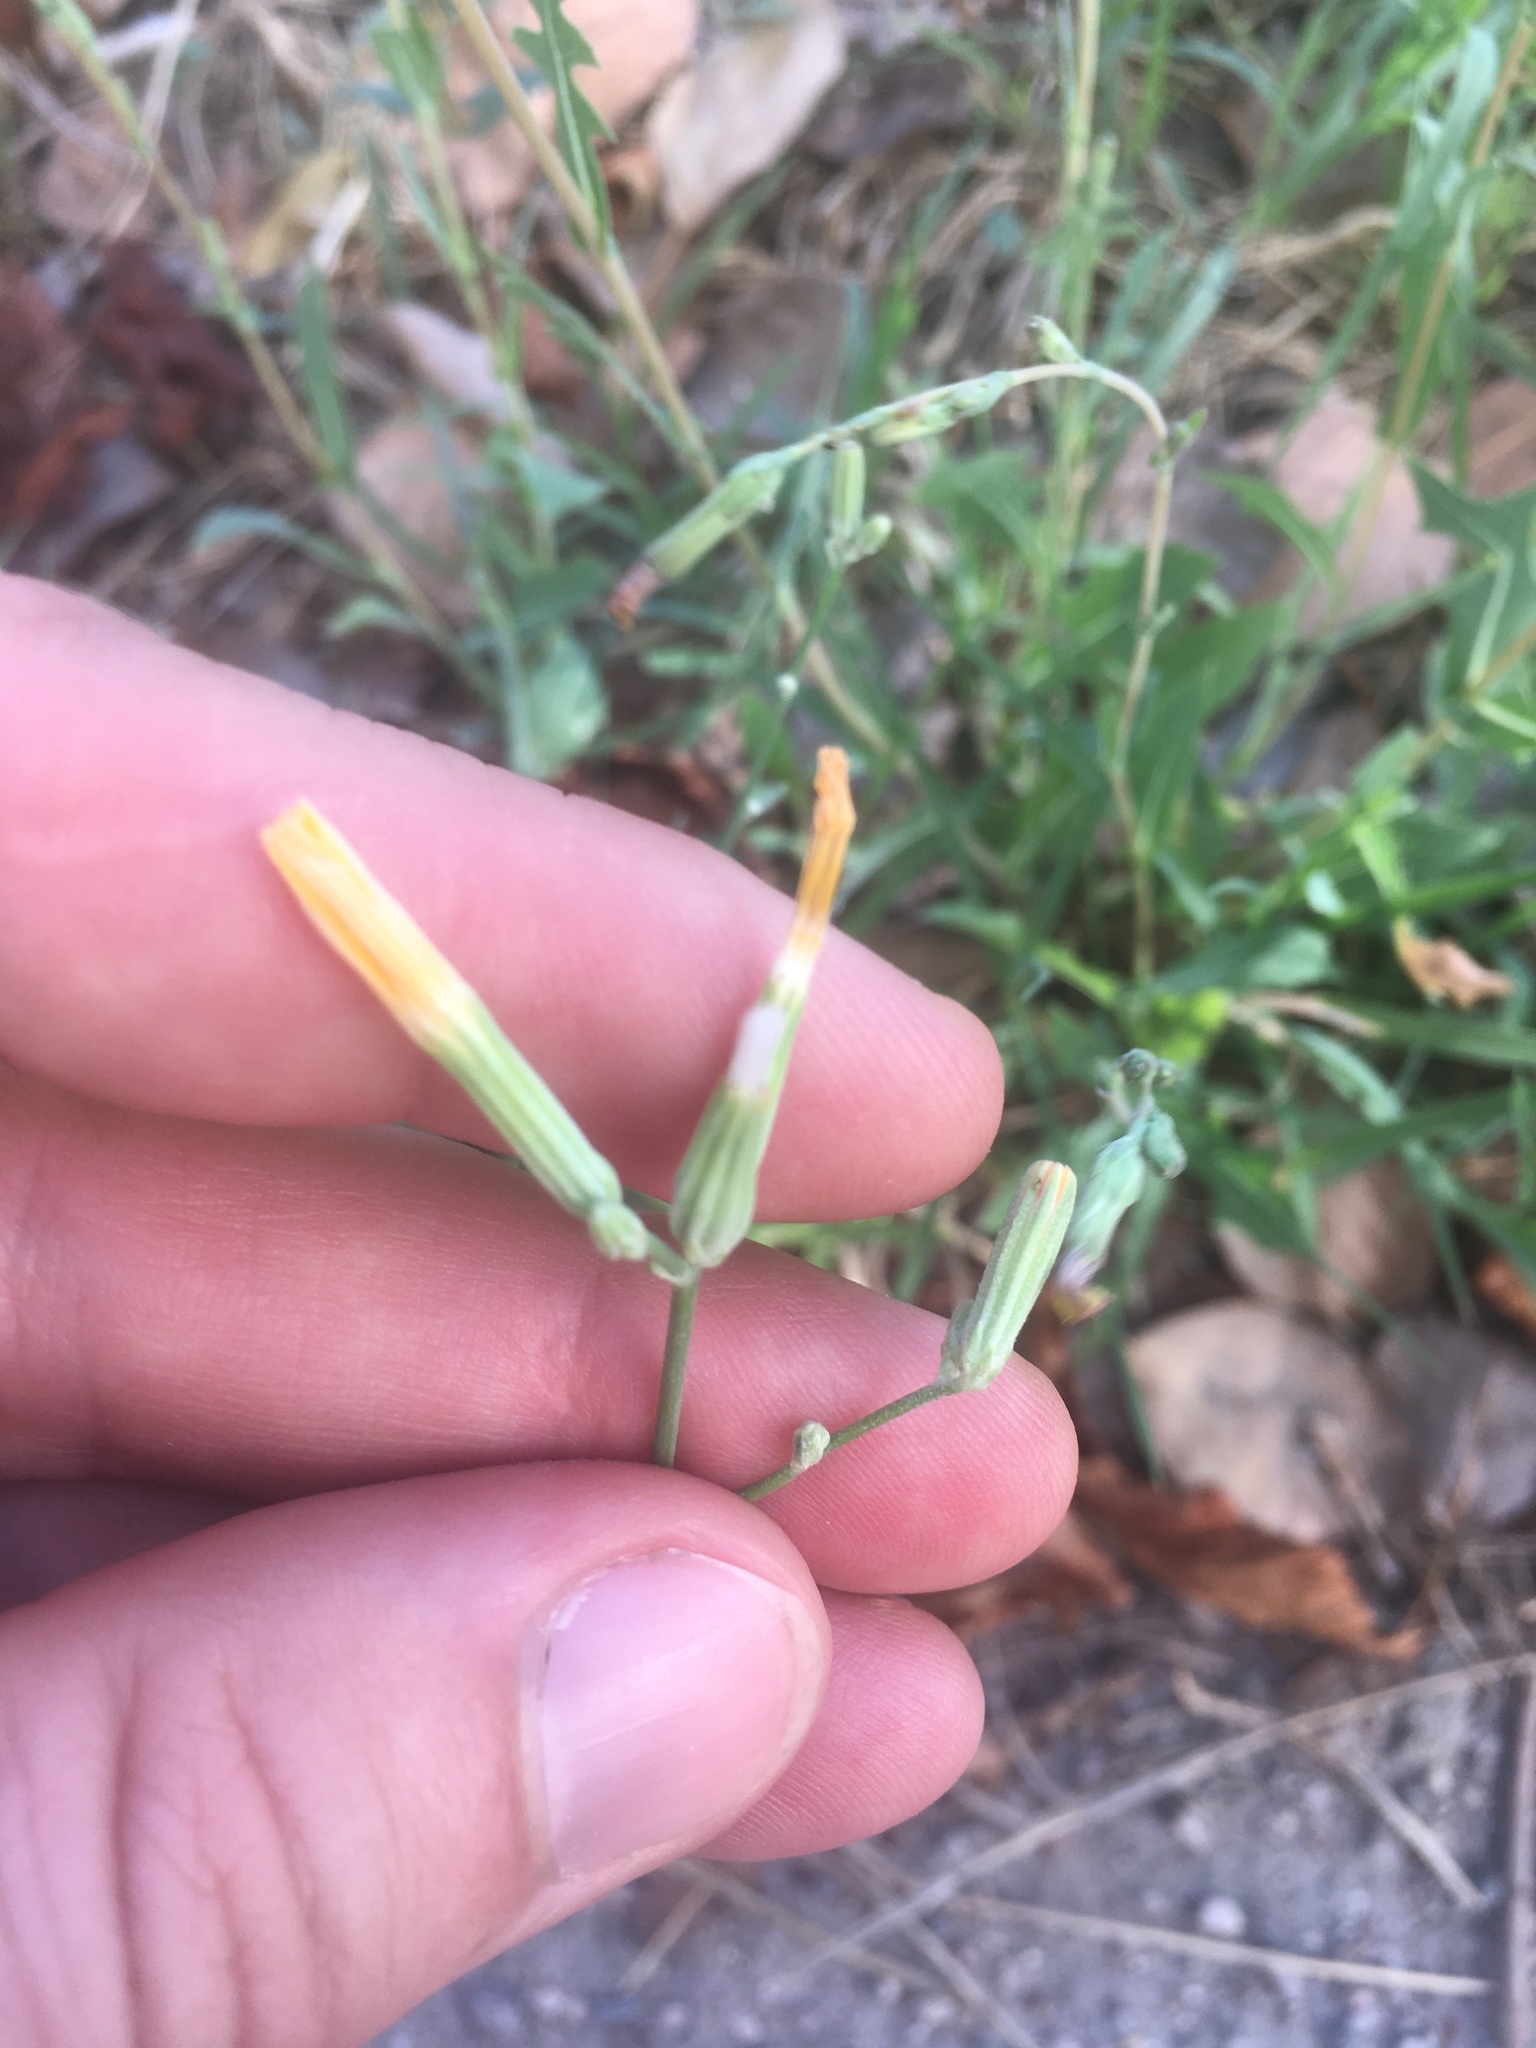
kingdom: Plantae
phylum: Tracheophyta
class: Magnoliopsida
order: Asterales
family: Asteraceae
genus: Chondrilla
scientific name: Chondrilla juncea
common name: Skeleton weed
